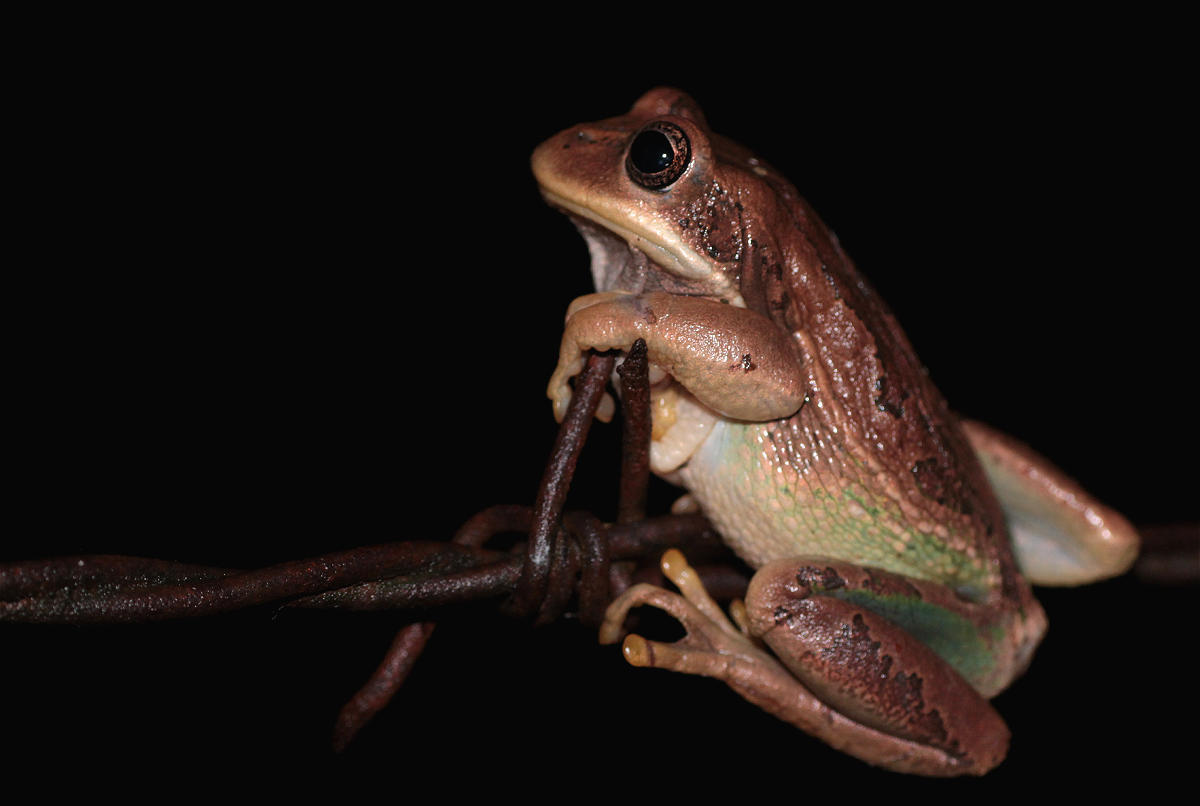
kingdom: Animalia
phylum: Chordata
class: Amphibia
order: Anura
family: Hemiphractidae
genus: Gastrotheca
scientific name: Gastrotheca cuencana
